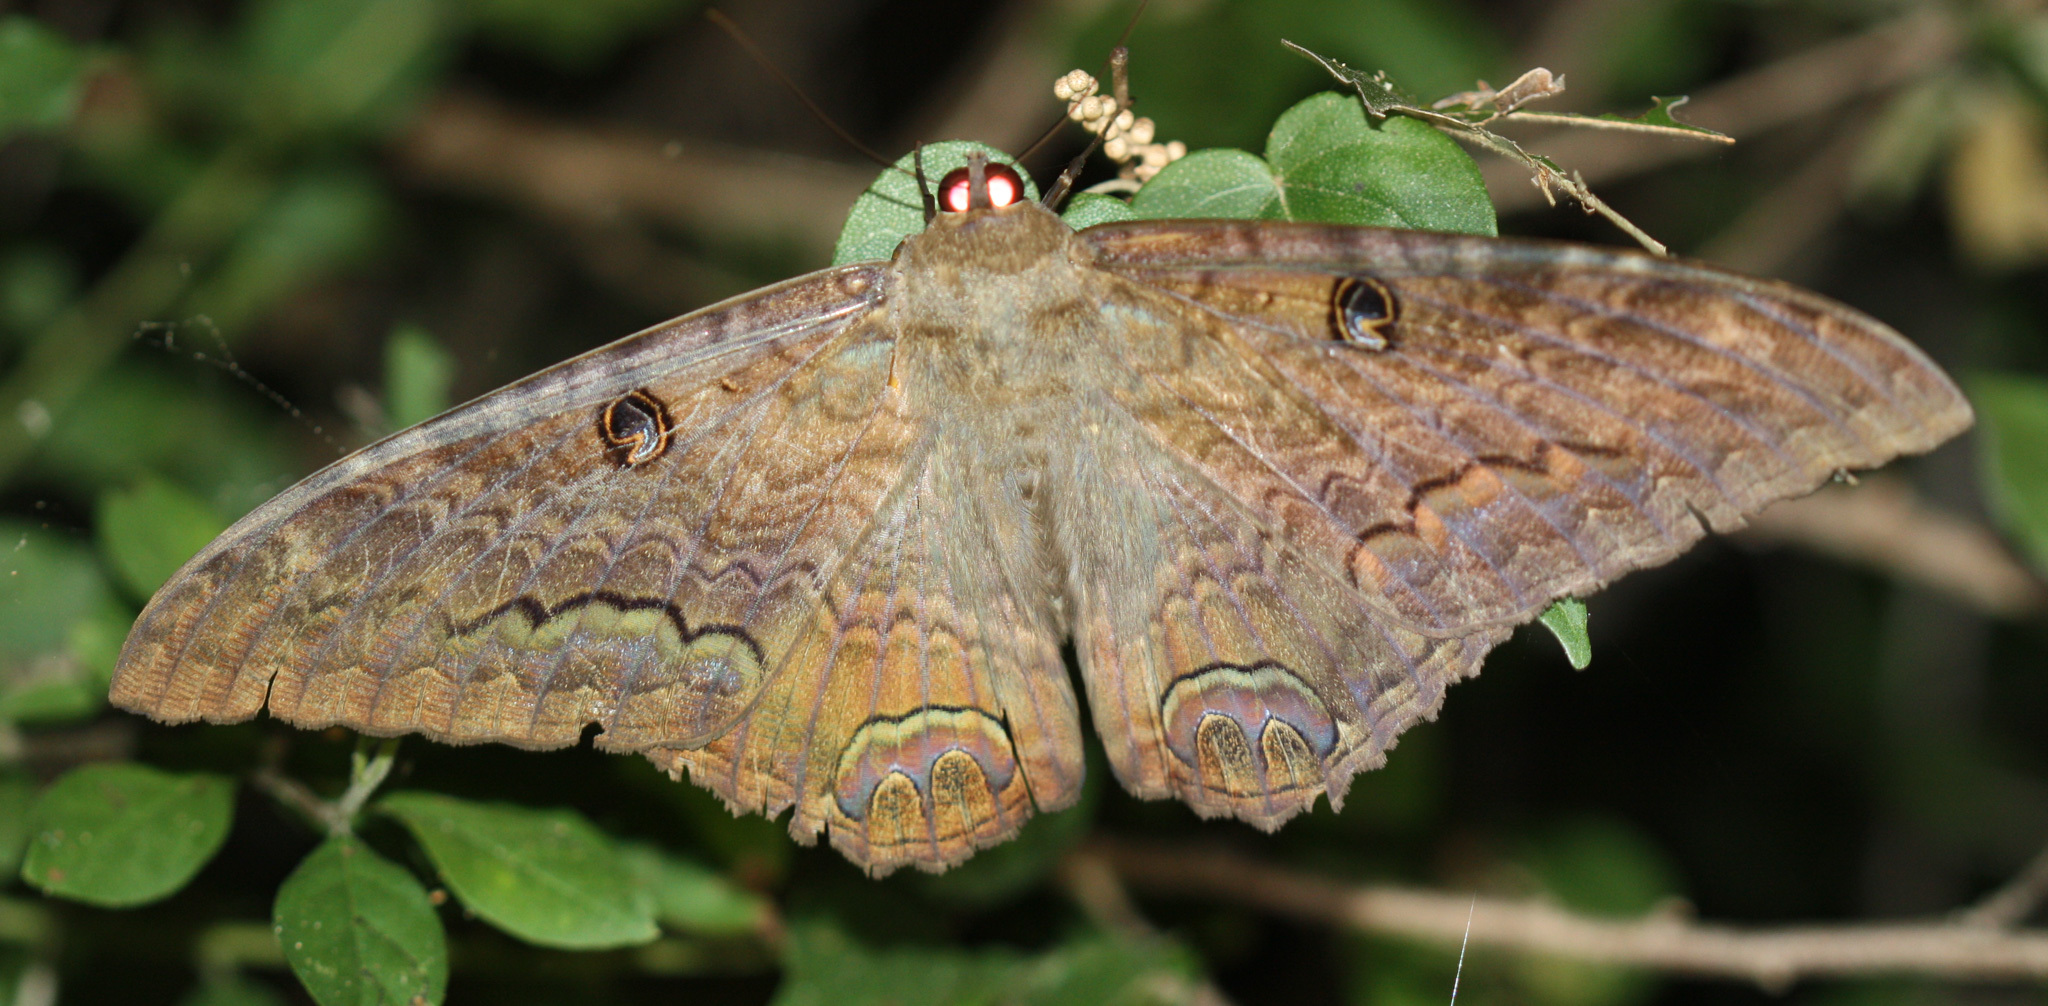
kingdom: Animalia
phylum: Arthropoda
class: Insecta
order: Lepidoptera
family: Erebidae
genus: Ascalapha
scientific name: Ascalapha odorata
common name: Black witch
